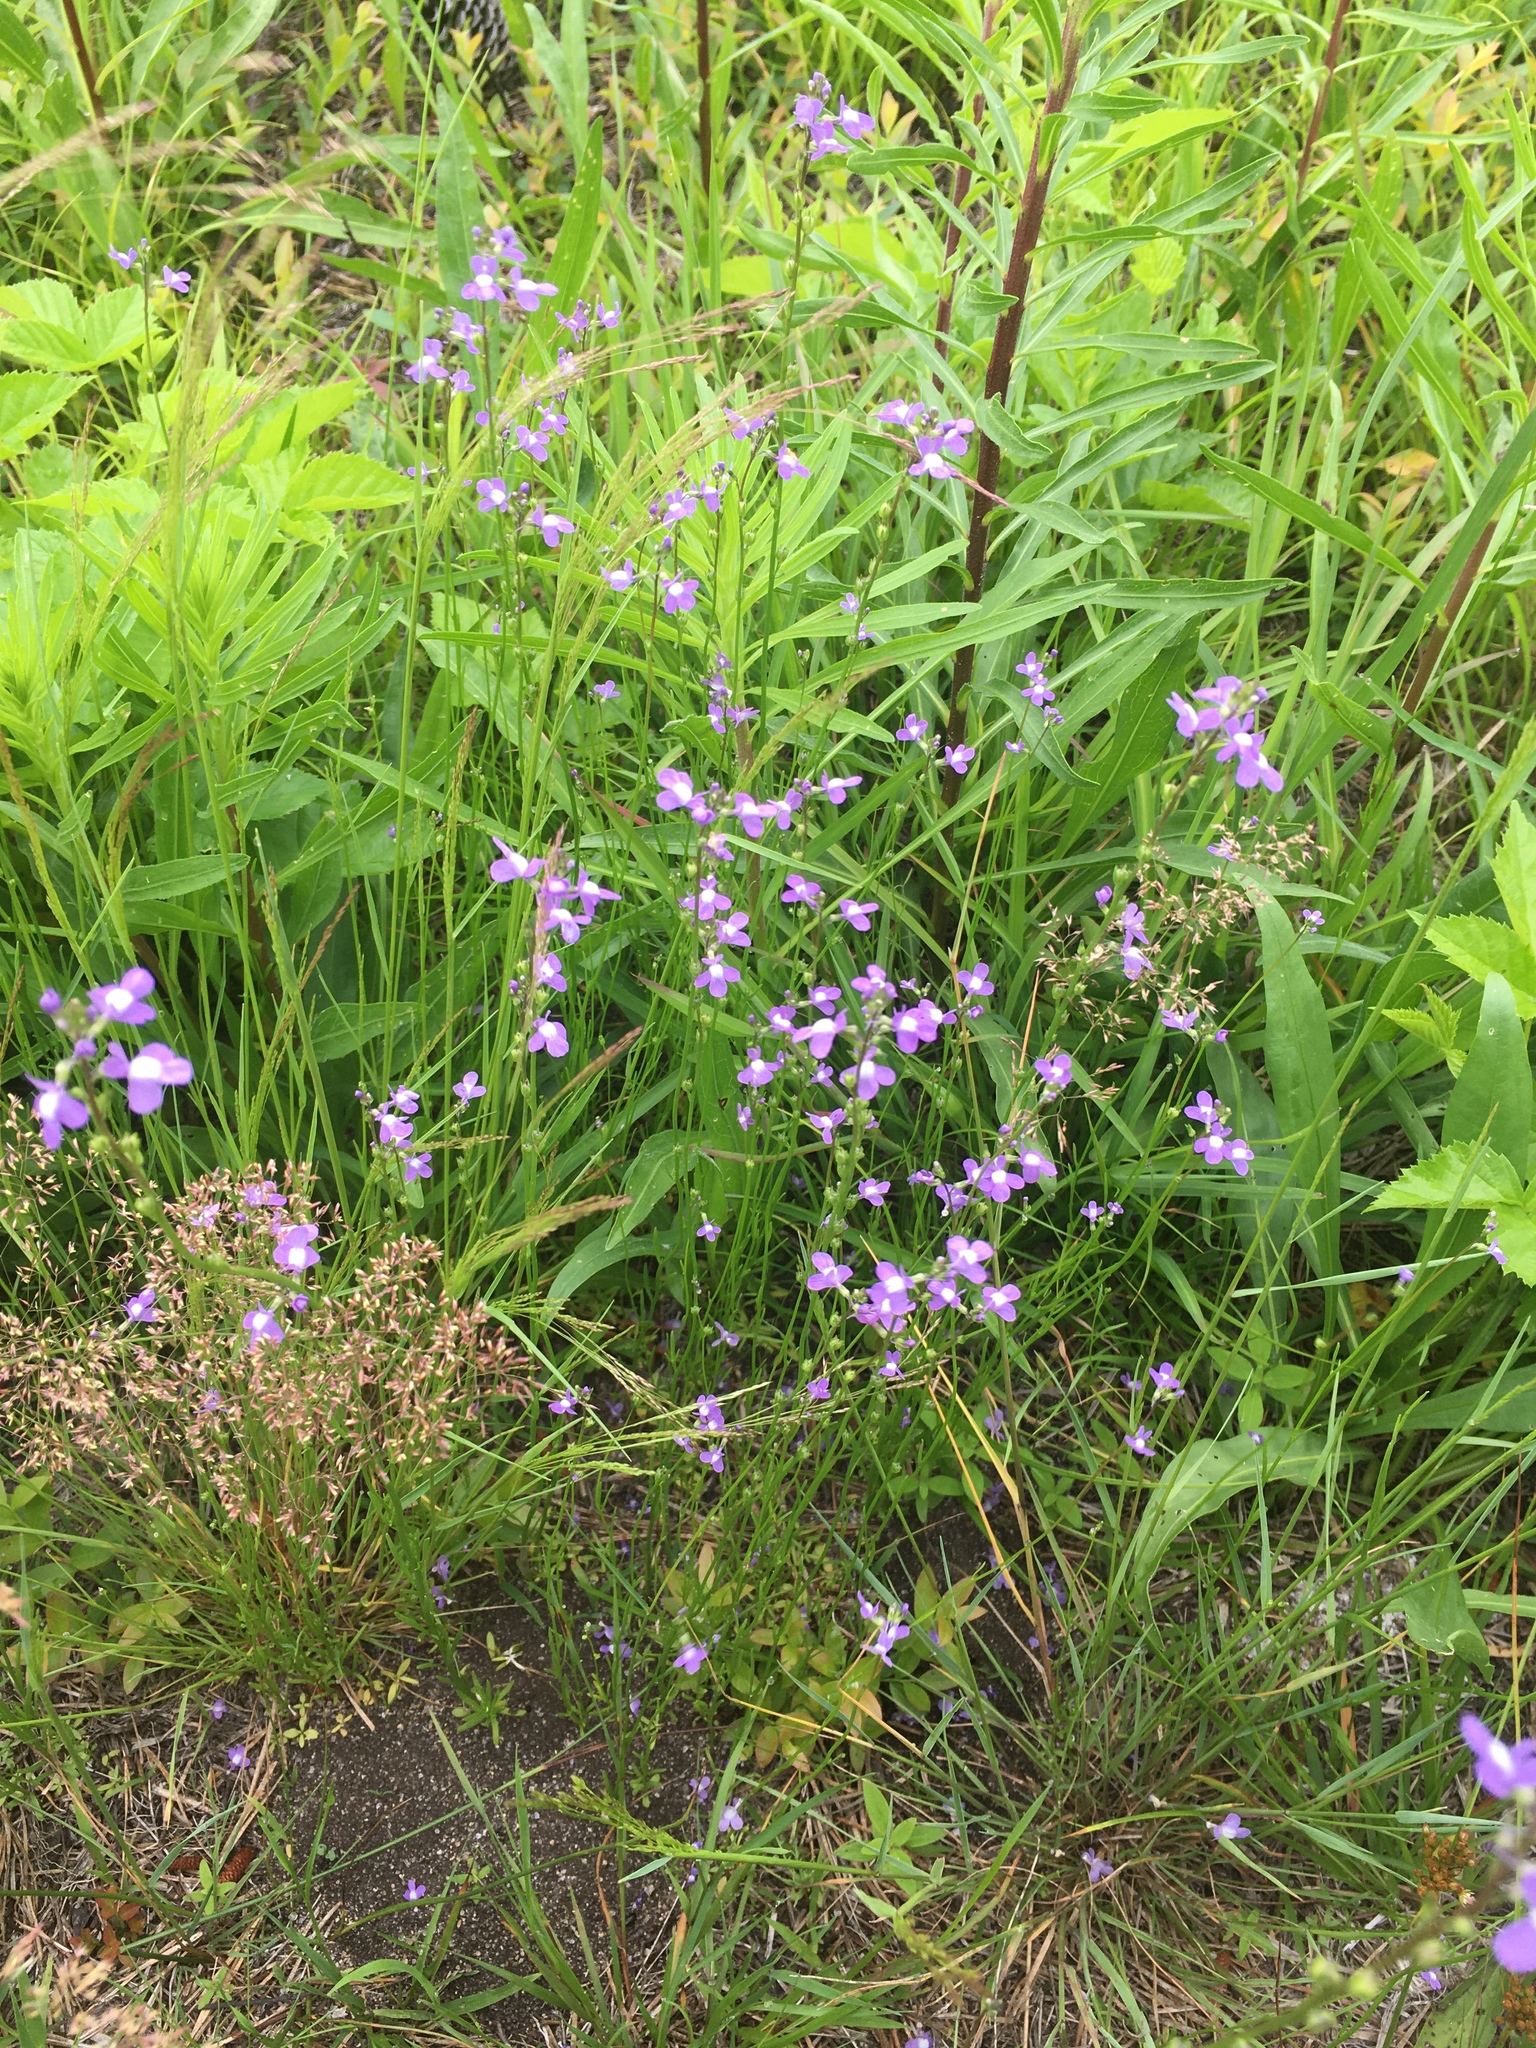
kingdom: Plantae
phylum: Tracheophyta
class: Magnoliopsida
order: Lamiales
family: Plantaginaceae
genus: Nuttallanthus
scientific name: Nuttallanthus canadensis
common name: Blue toadflax
